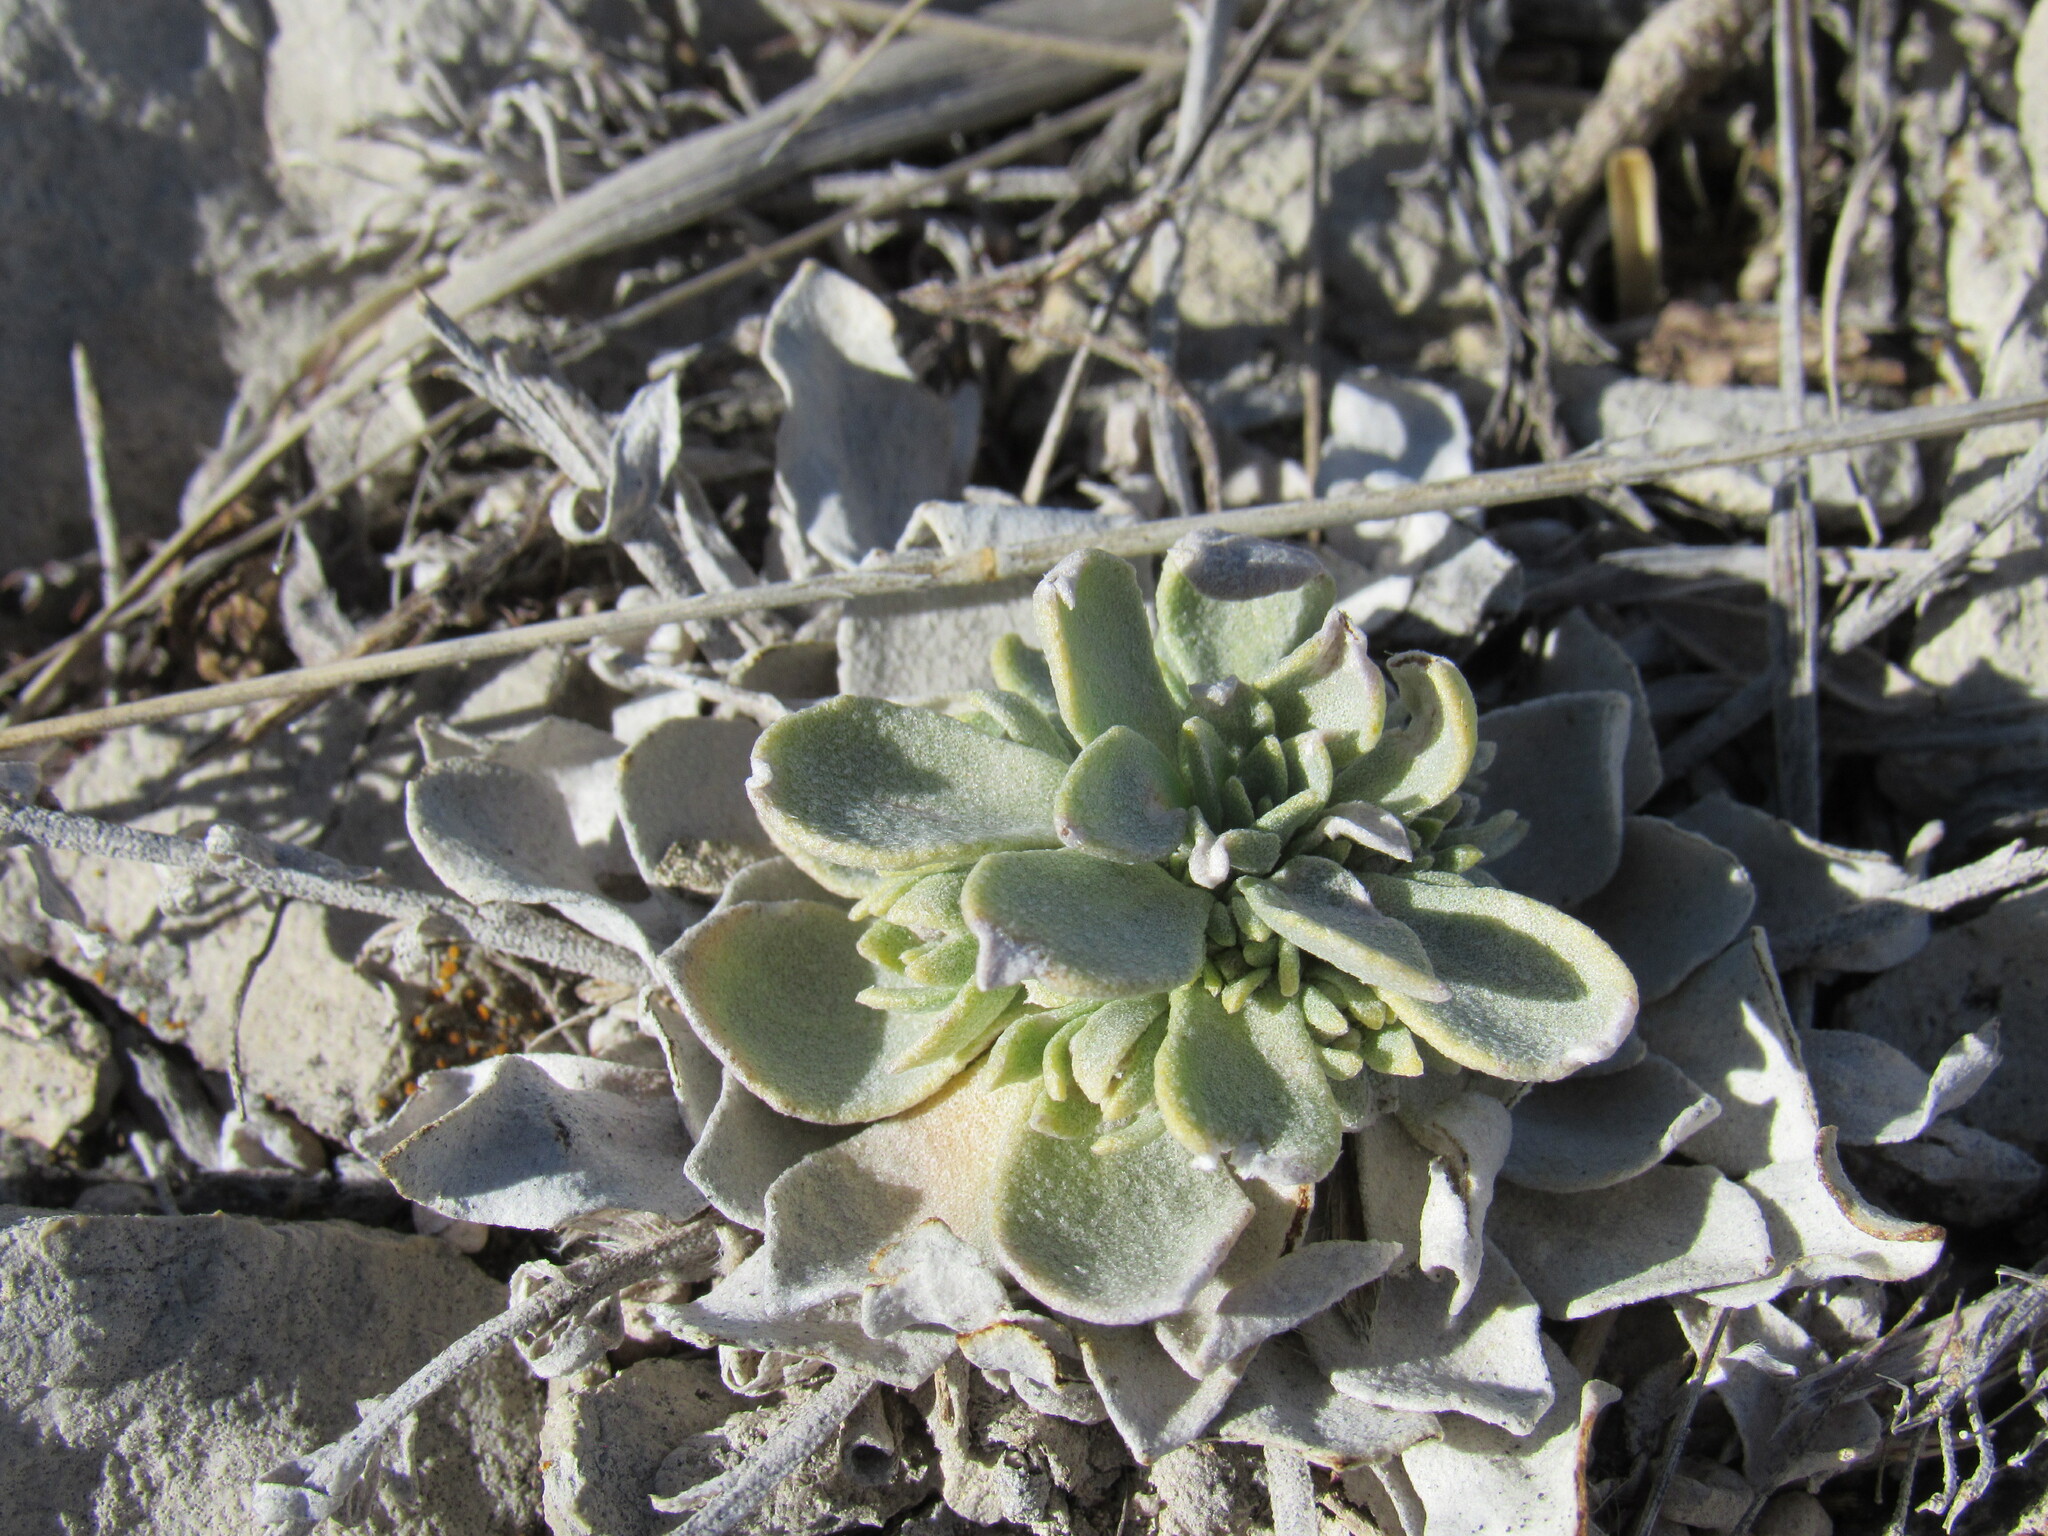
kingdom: Plantae
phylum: Tracheophyta
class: Magnoliopsida
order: Brassicales
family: Brassicaceae
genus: Physaria
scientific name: Physaria bellii
